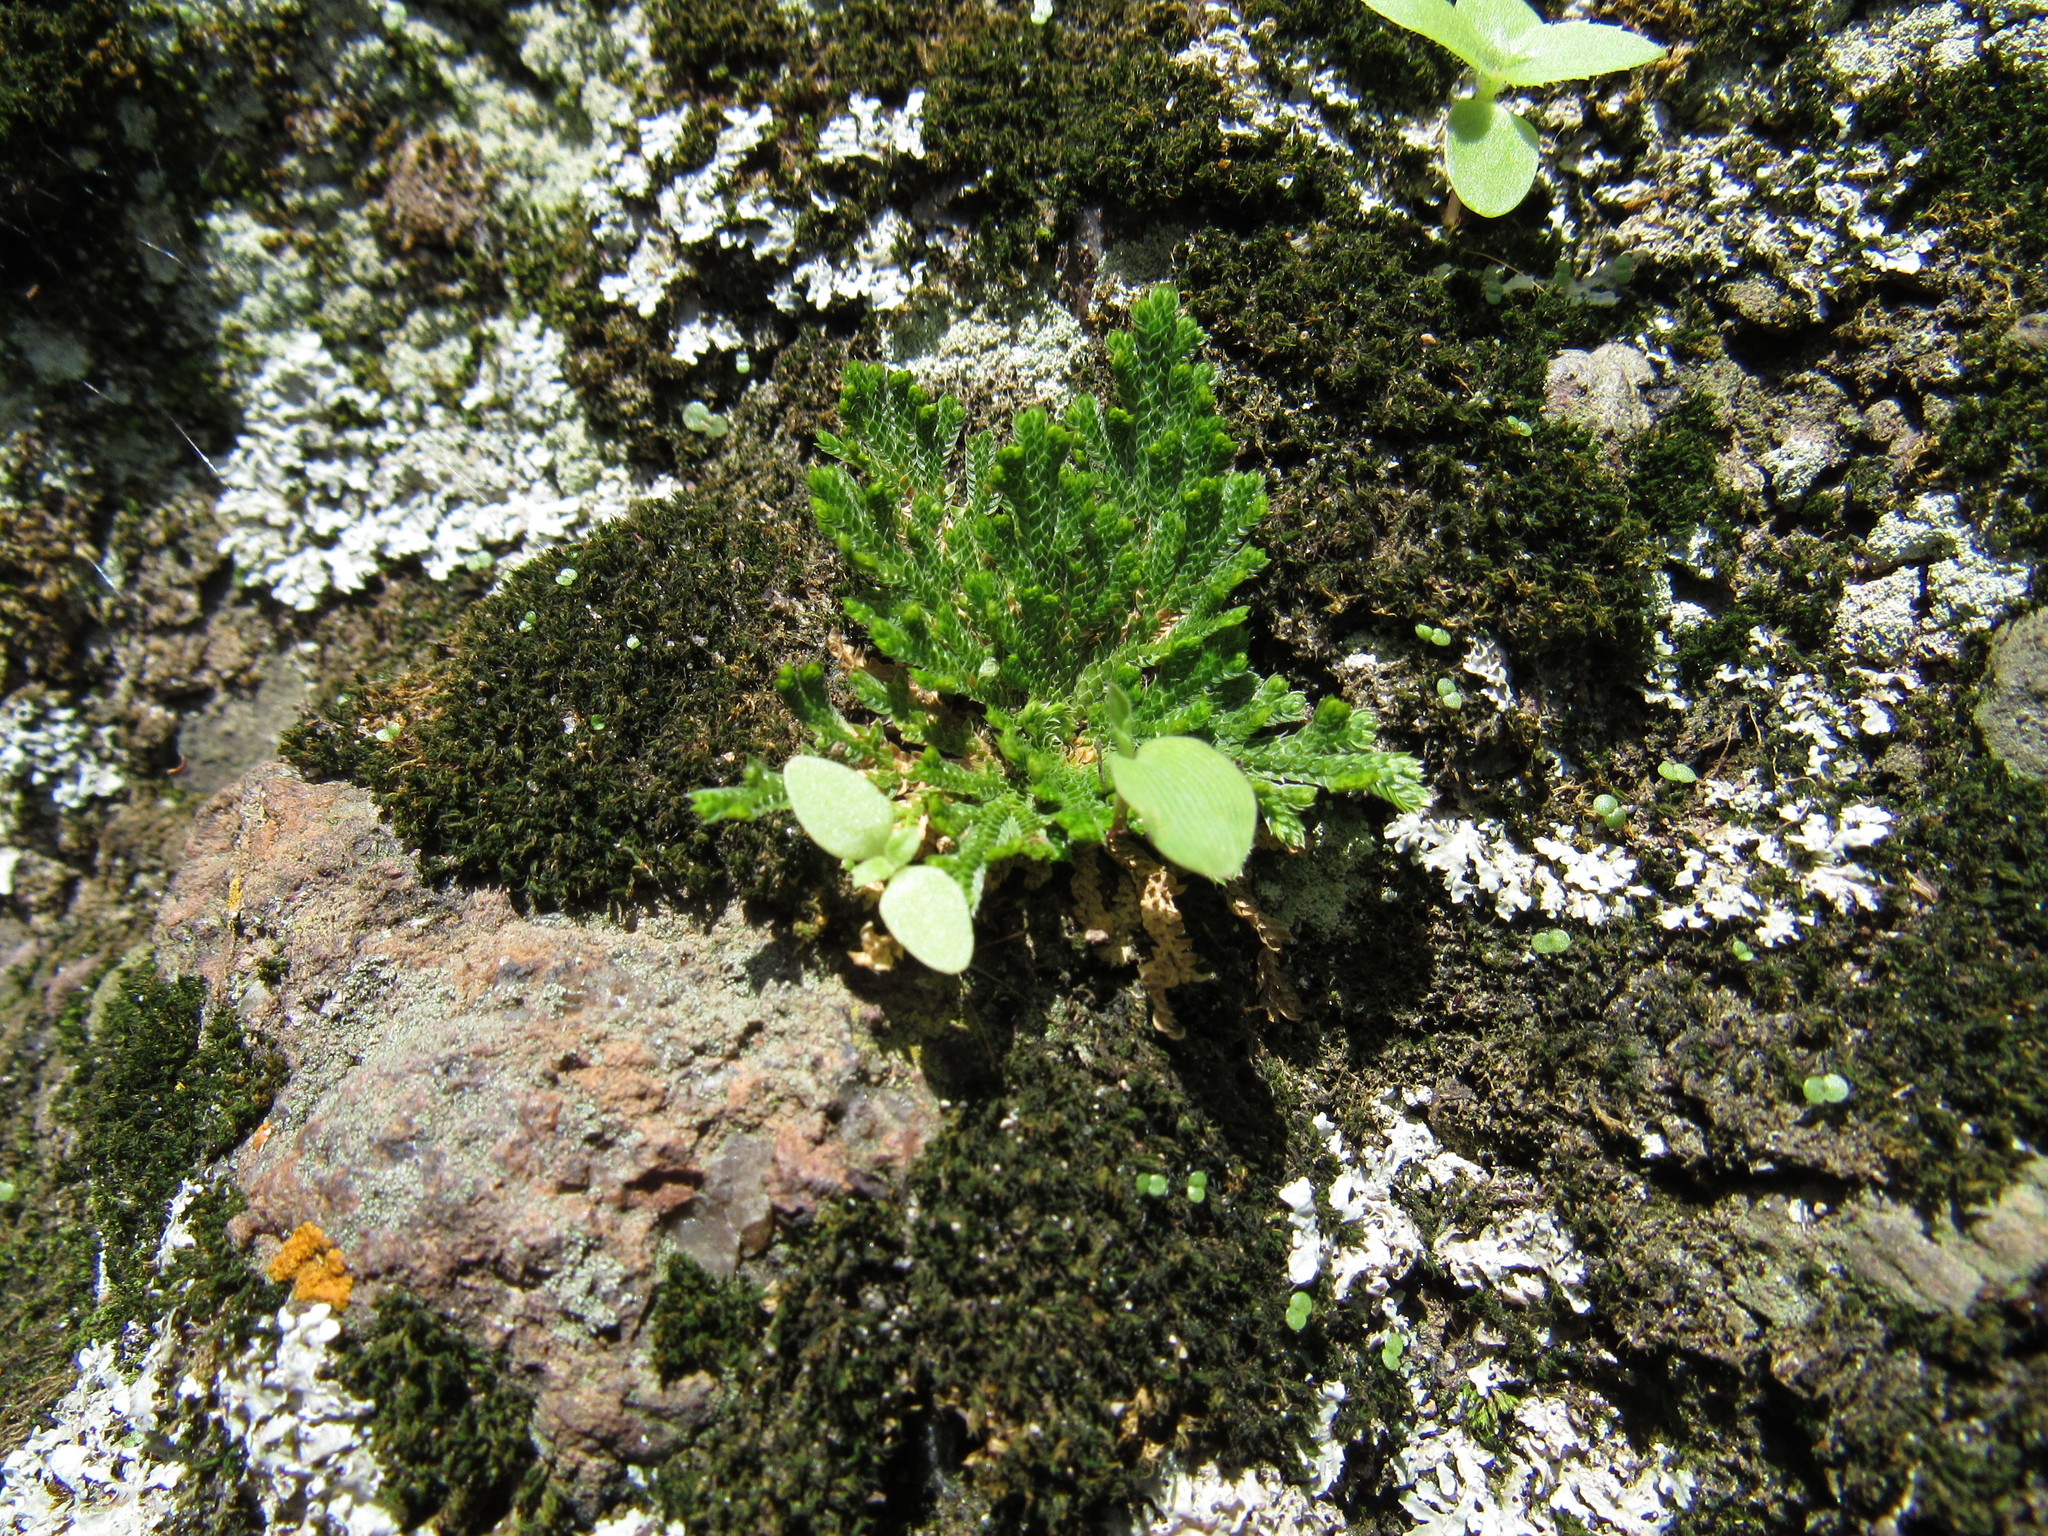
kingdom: Plantae
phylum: Tracheophyta
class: Lycopodiopsida
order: Selaginellales
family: Selaginellaceae
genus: Selaginella
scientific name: Selaginella lepidophylla
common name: Rose-of-jericho
